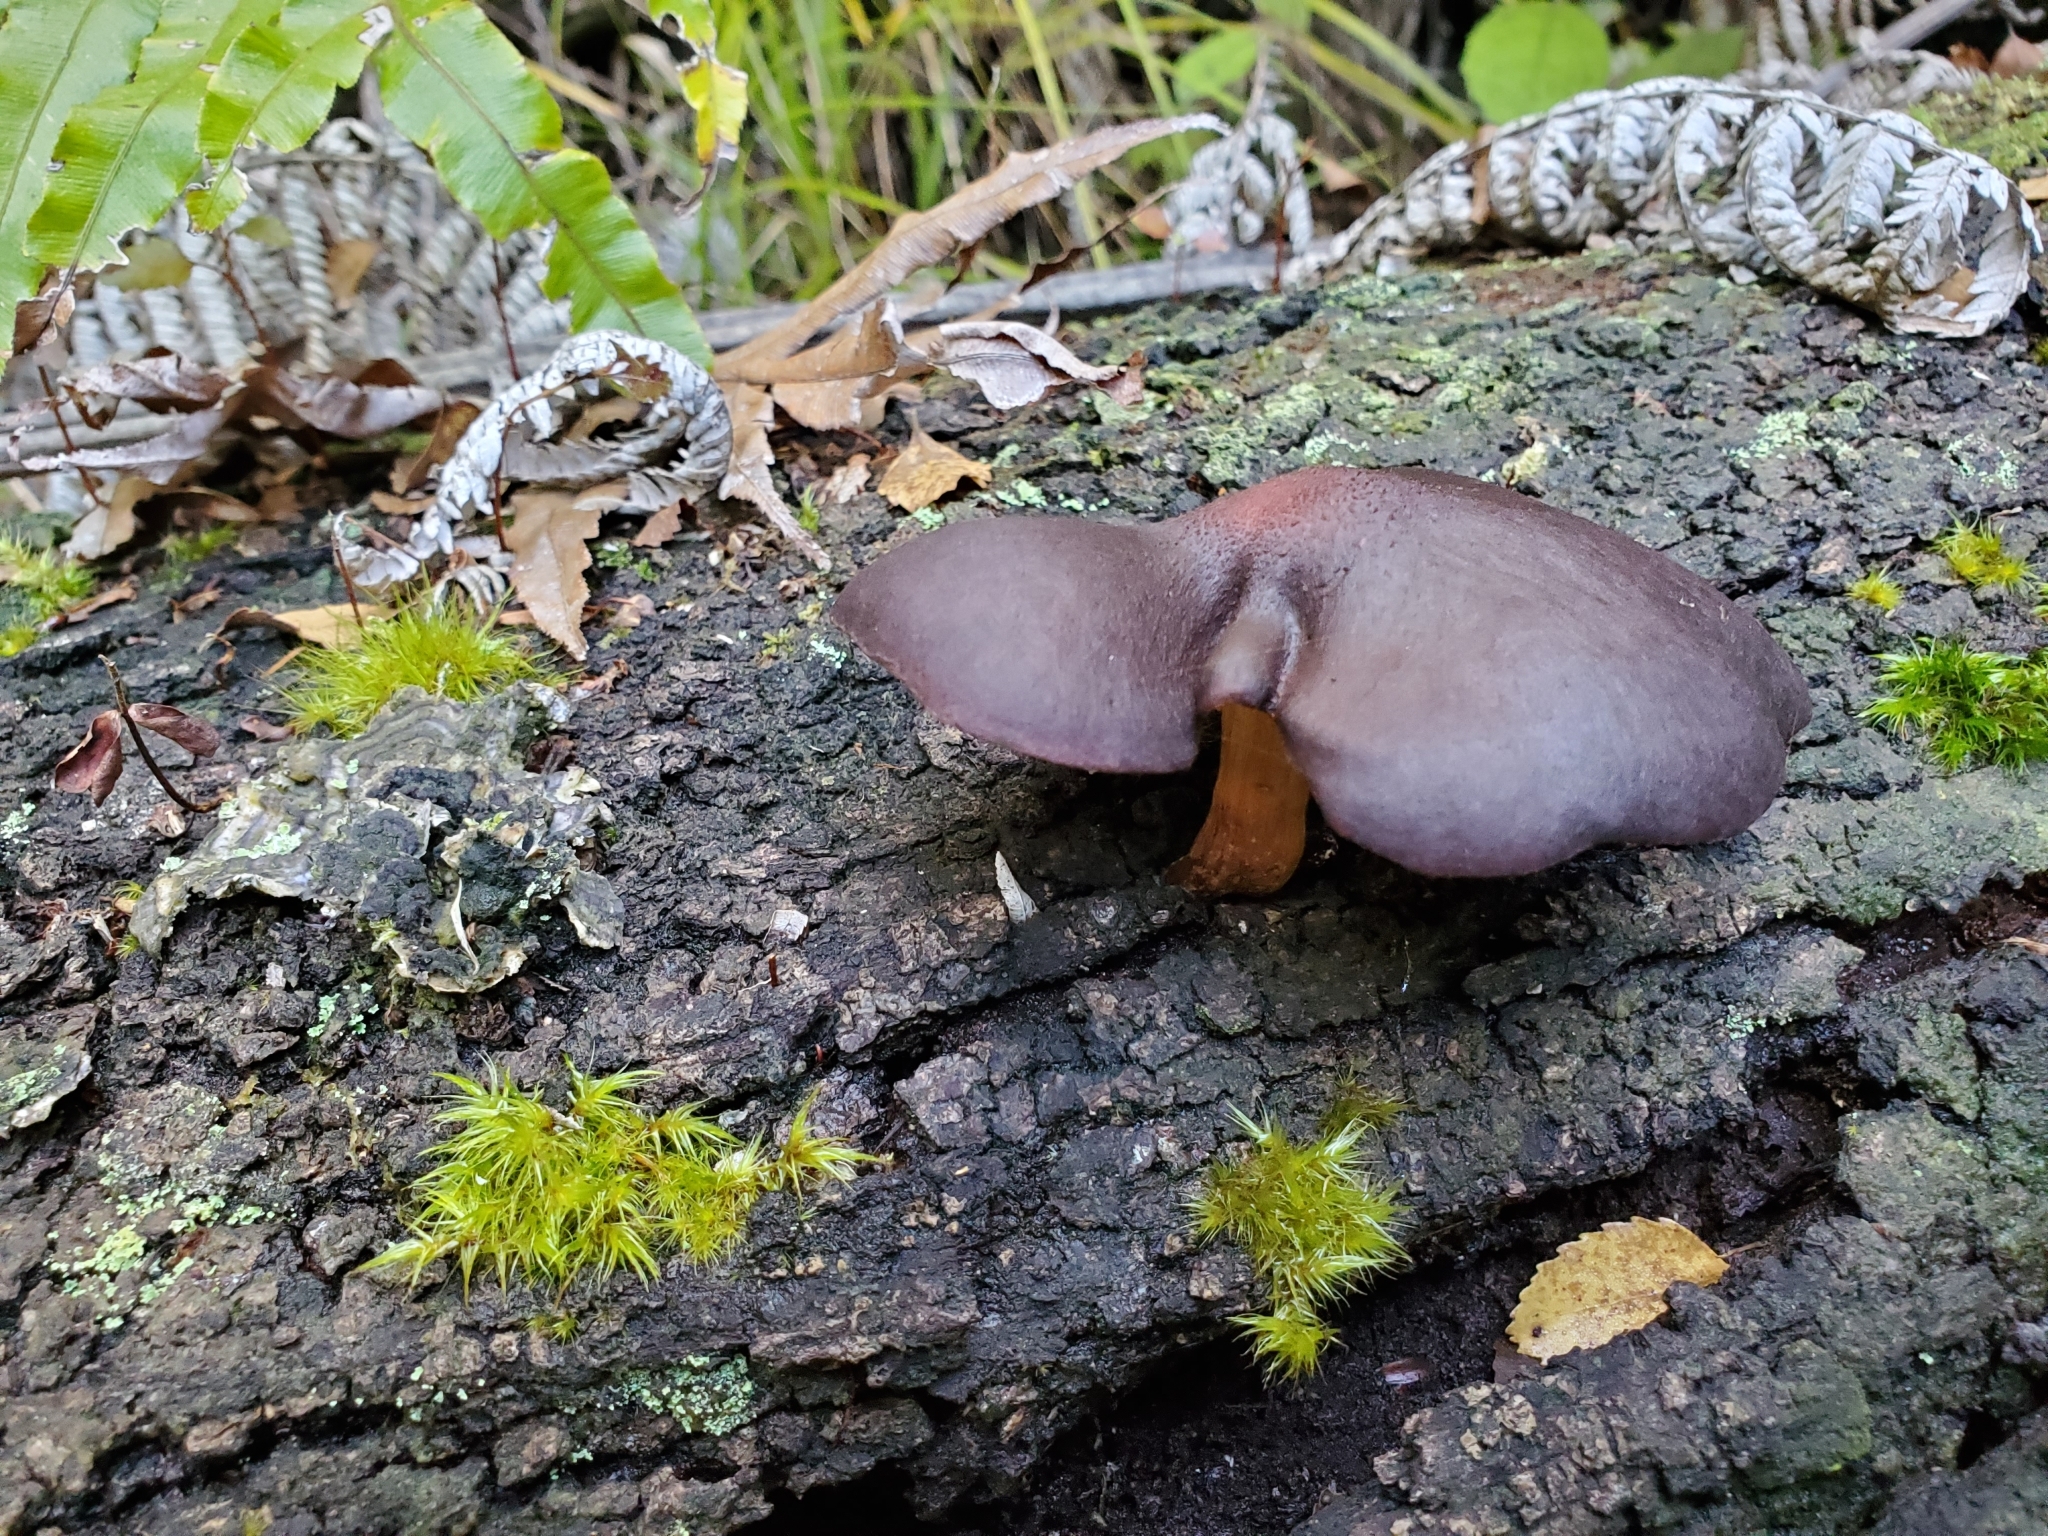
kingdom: Fungi
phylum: Basidiomycota
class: Agaricomycetes
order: Agaricales
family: Hymenogastraceae
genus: Gymnopilus
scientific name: Gymnopilus purpuratus
